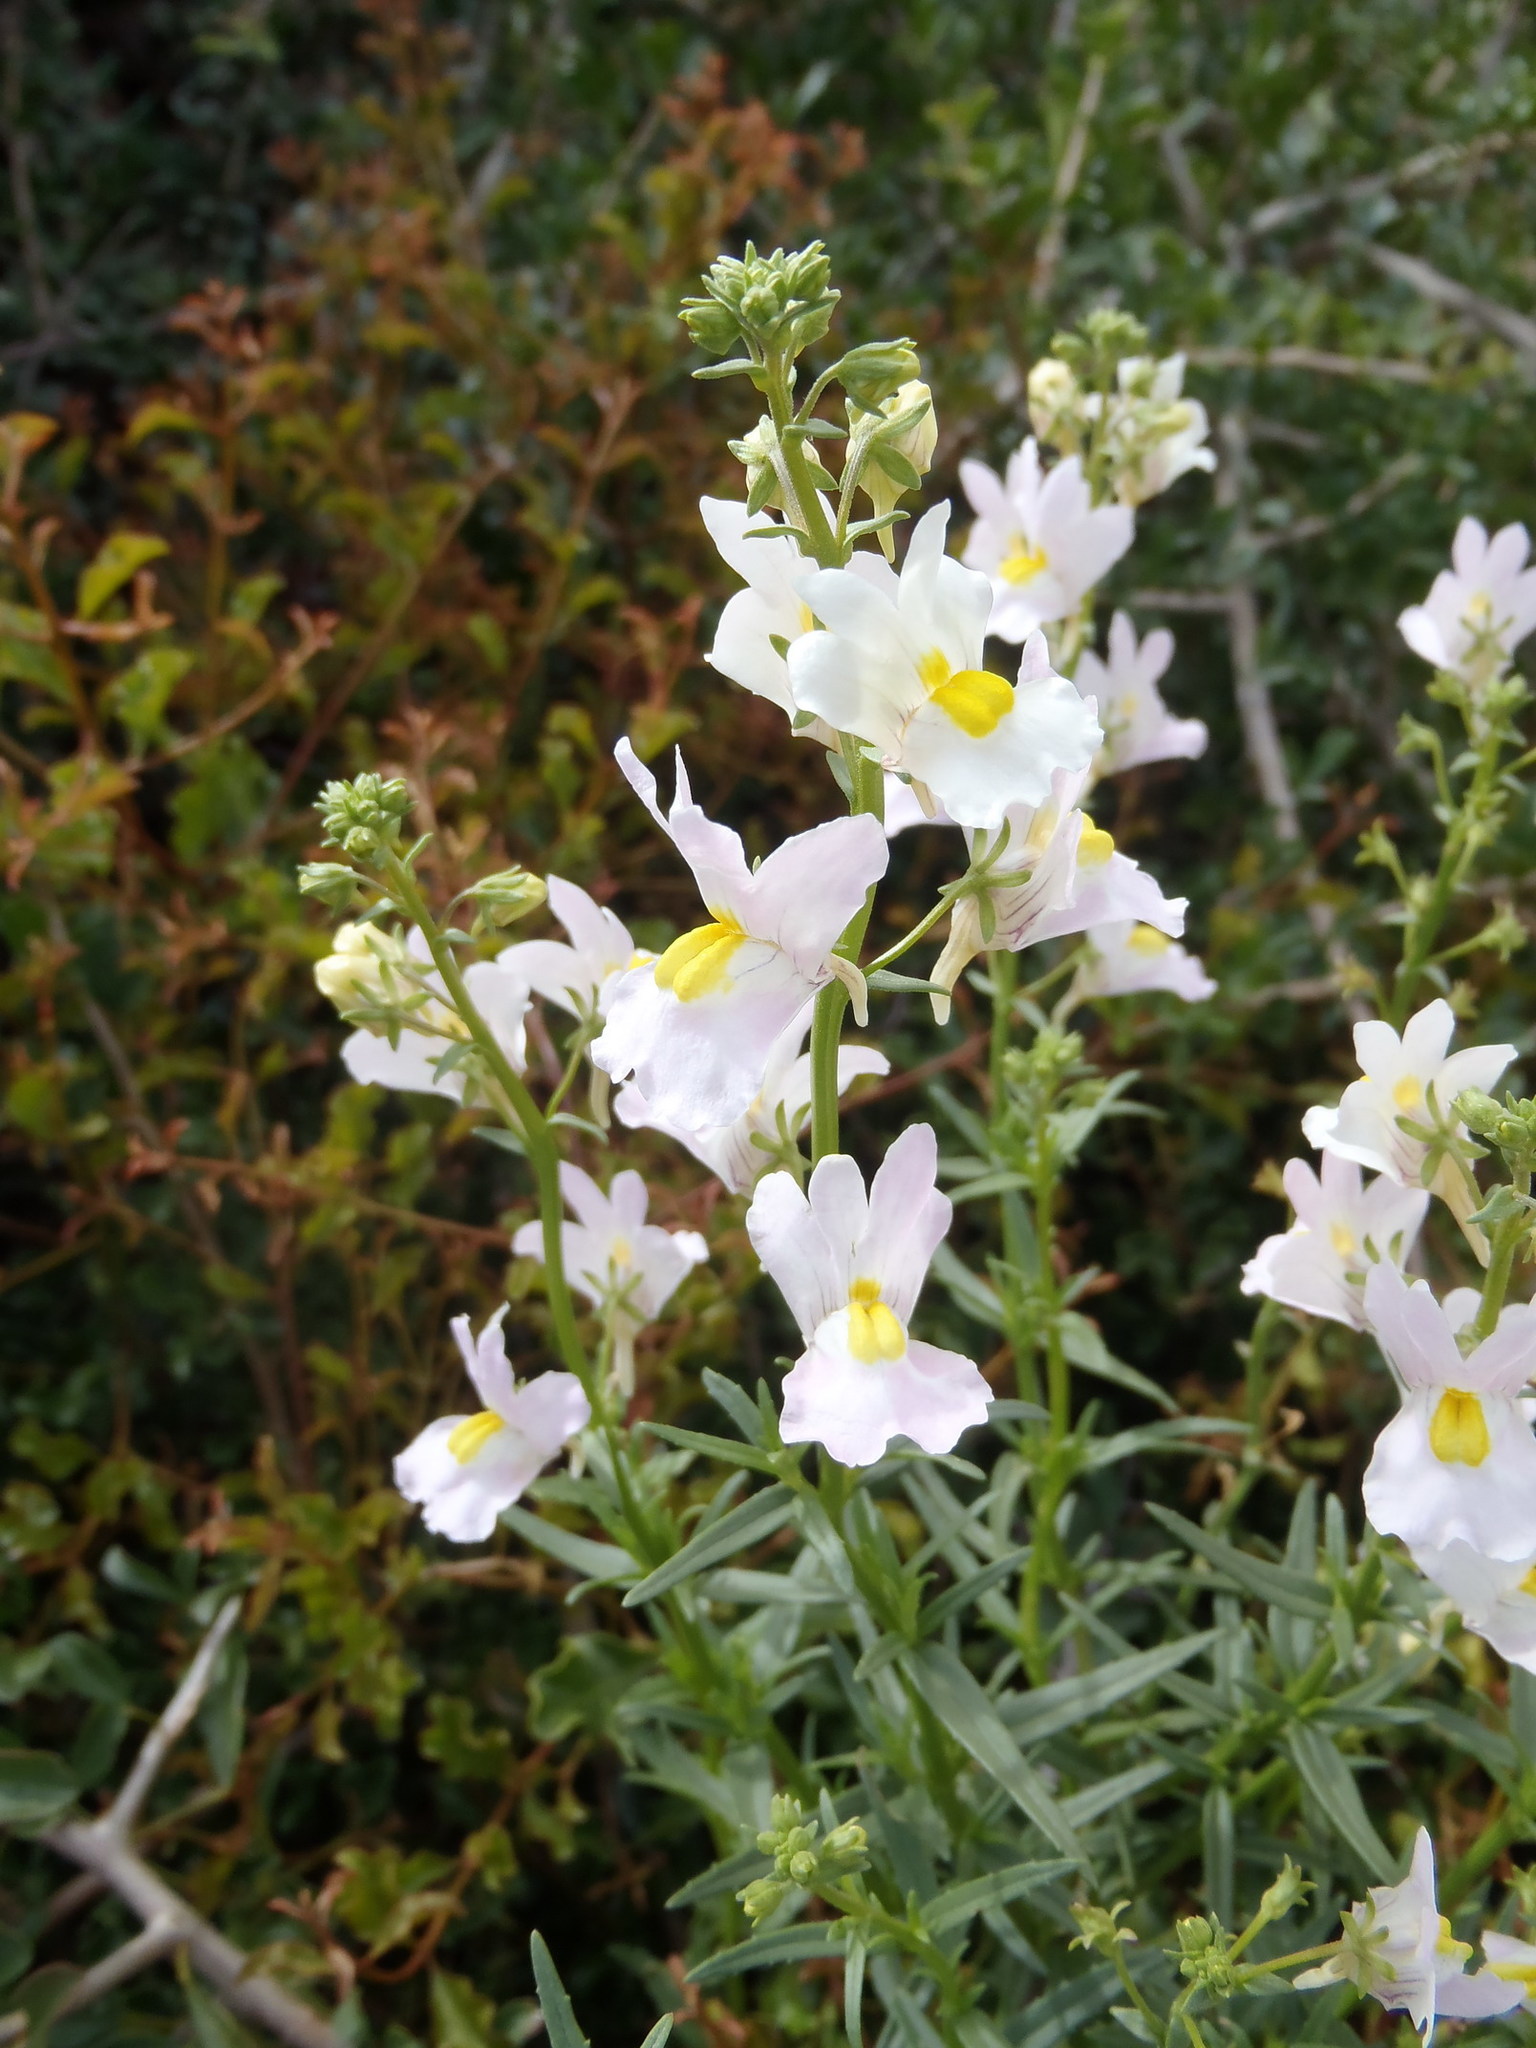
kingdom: Plantae
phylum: Tracheophyta
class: Magnoliopsida
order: Lamiales
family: Scrophulariaceae
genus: Nemesia
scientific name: Nemesia fruticans
